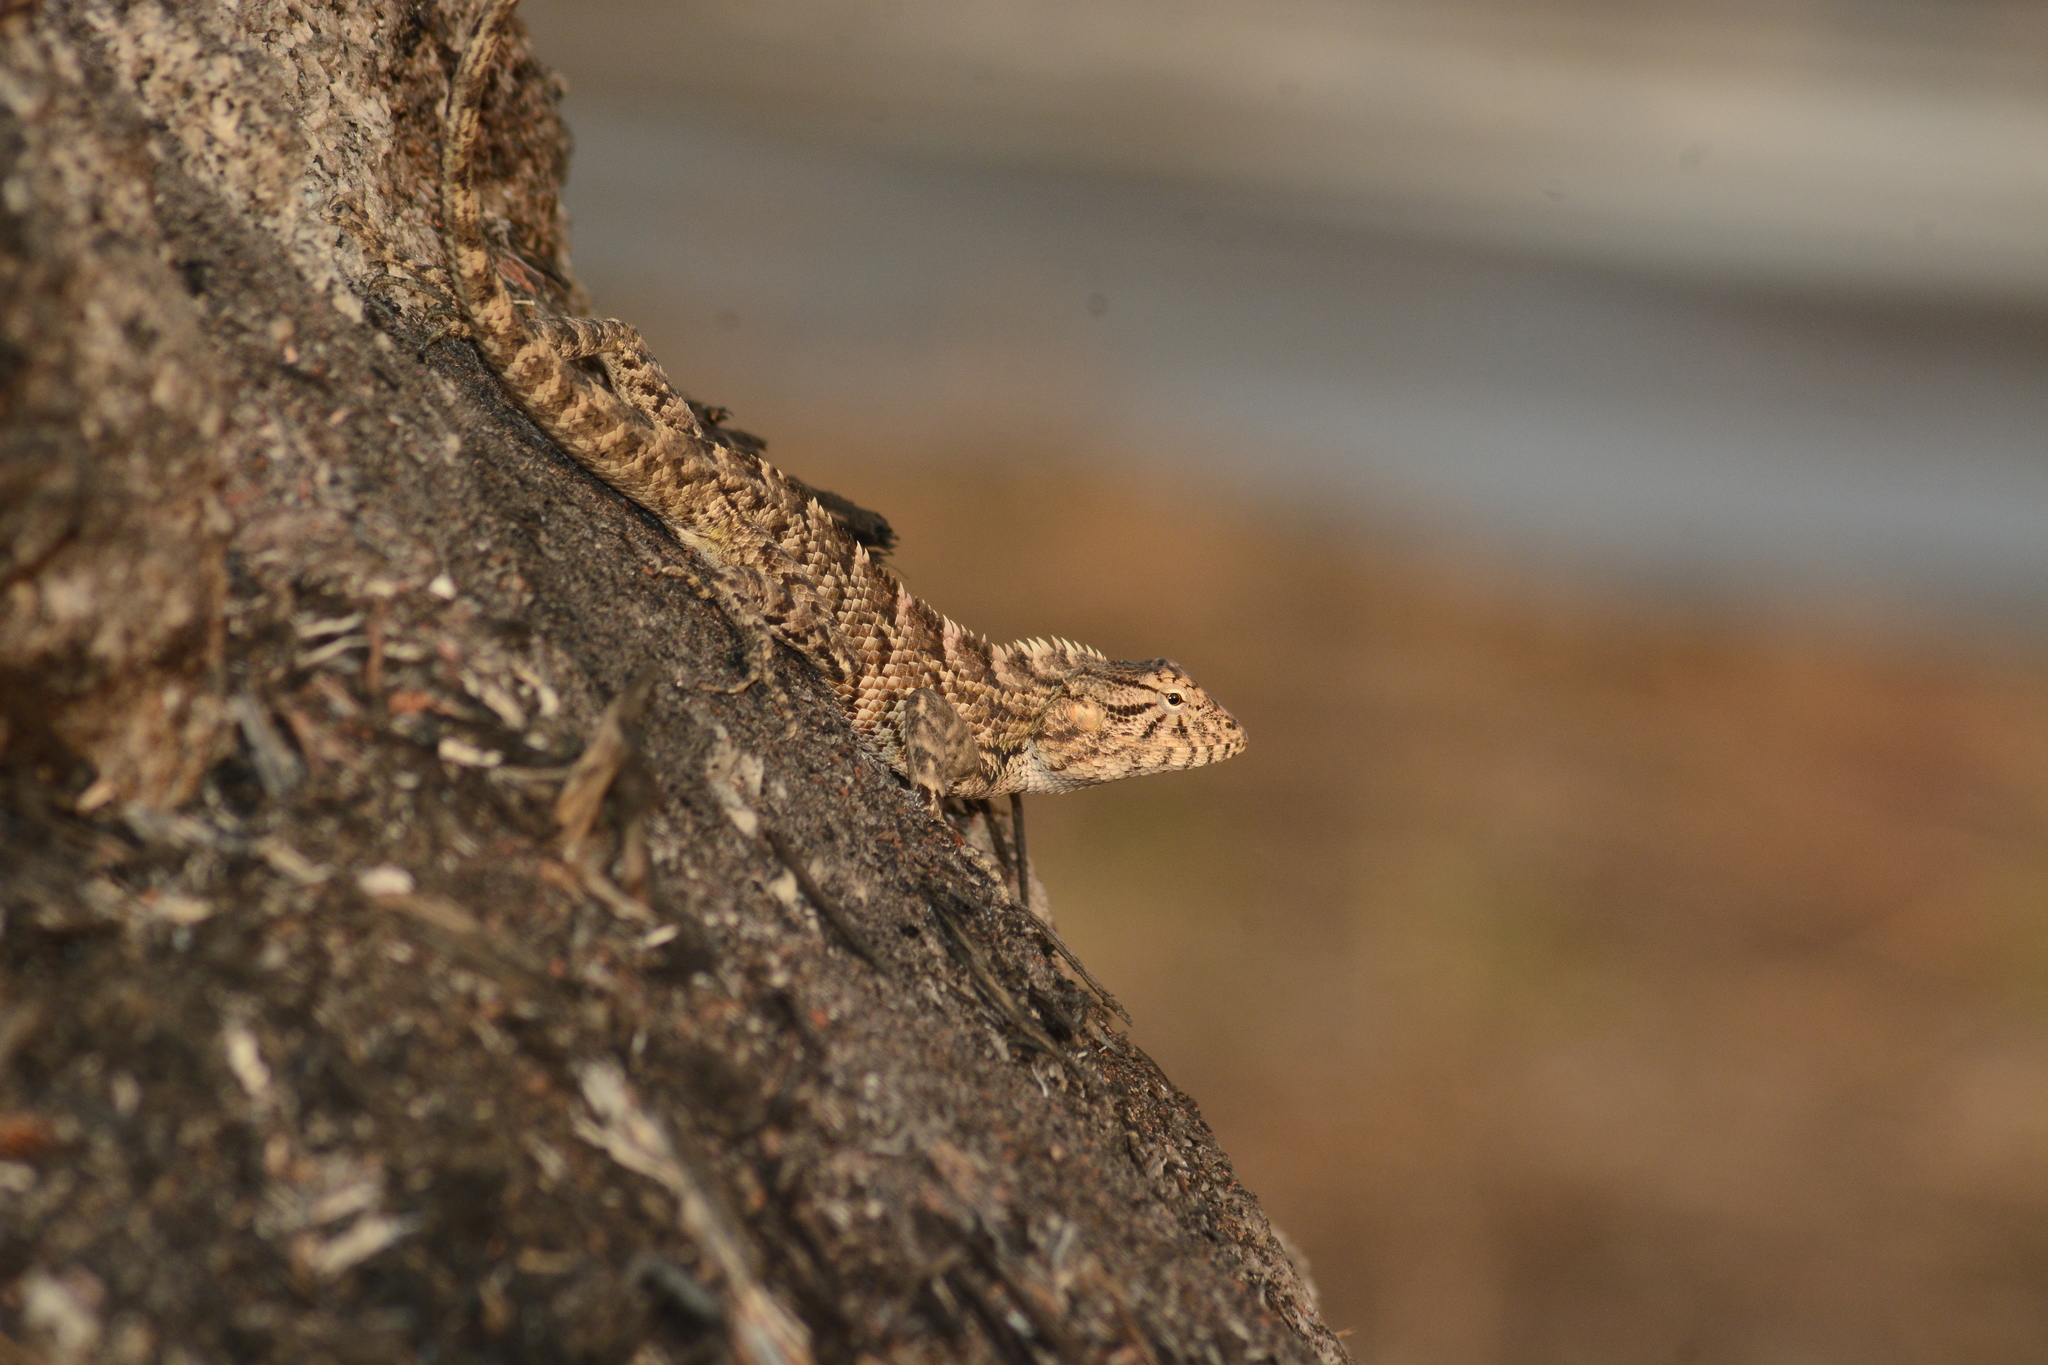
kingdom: Animalia
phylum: Chordata
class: Squamata
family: Agamidae
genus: Calotes
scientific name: Calotes versicolor
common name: Oriental garden lizard
